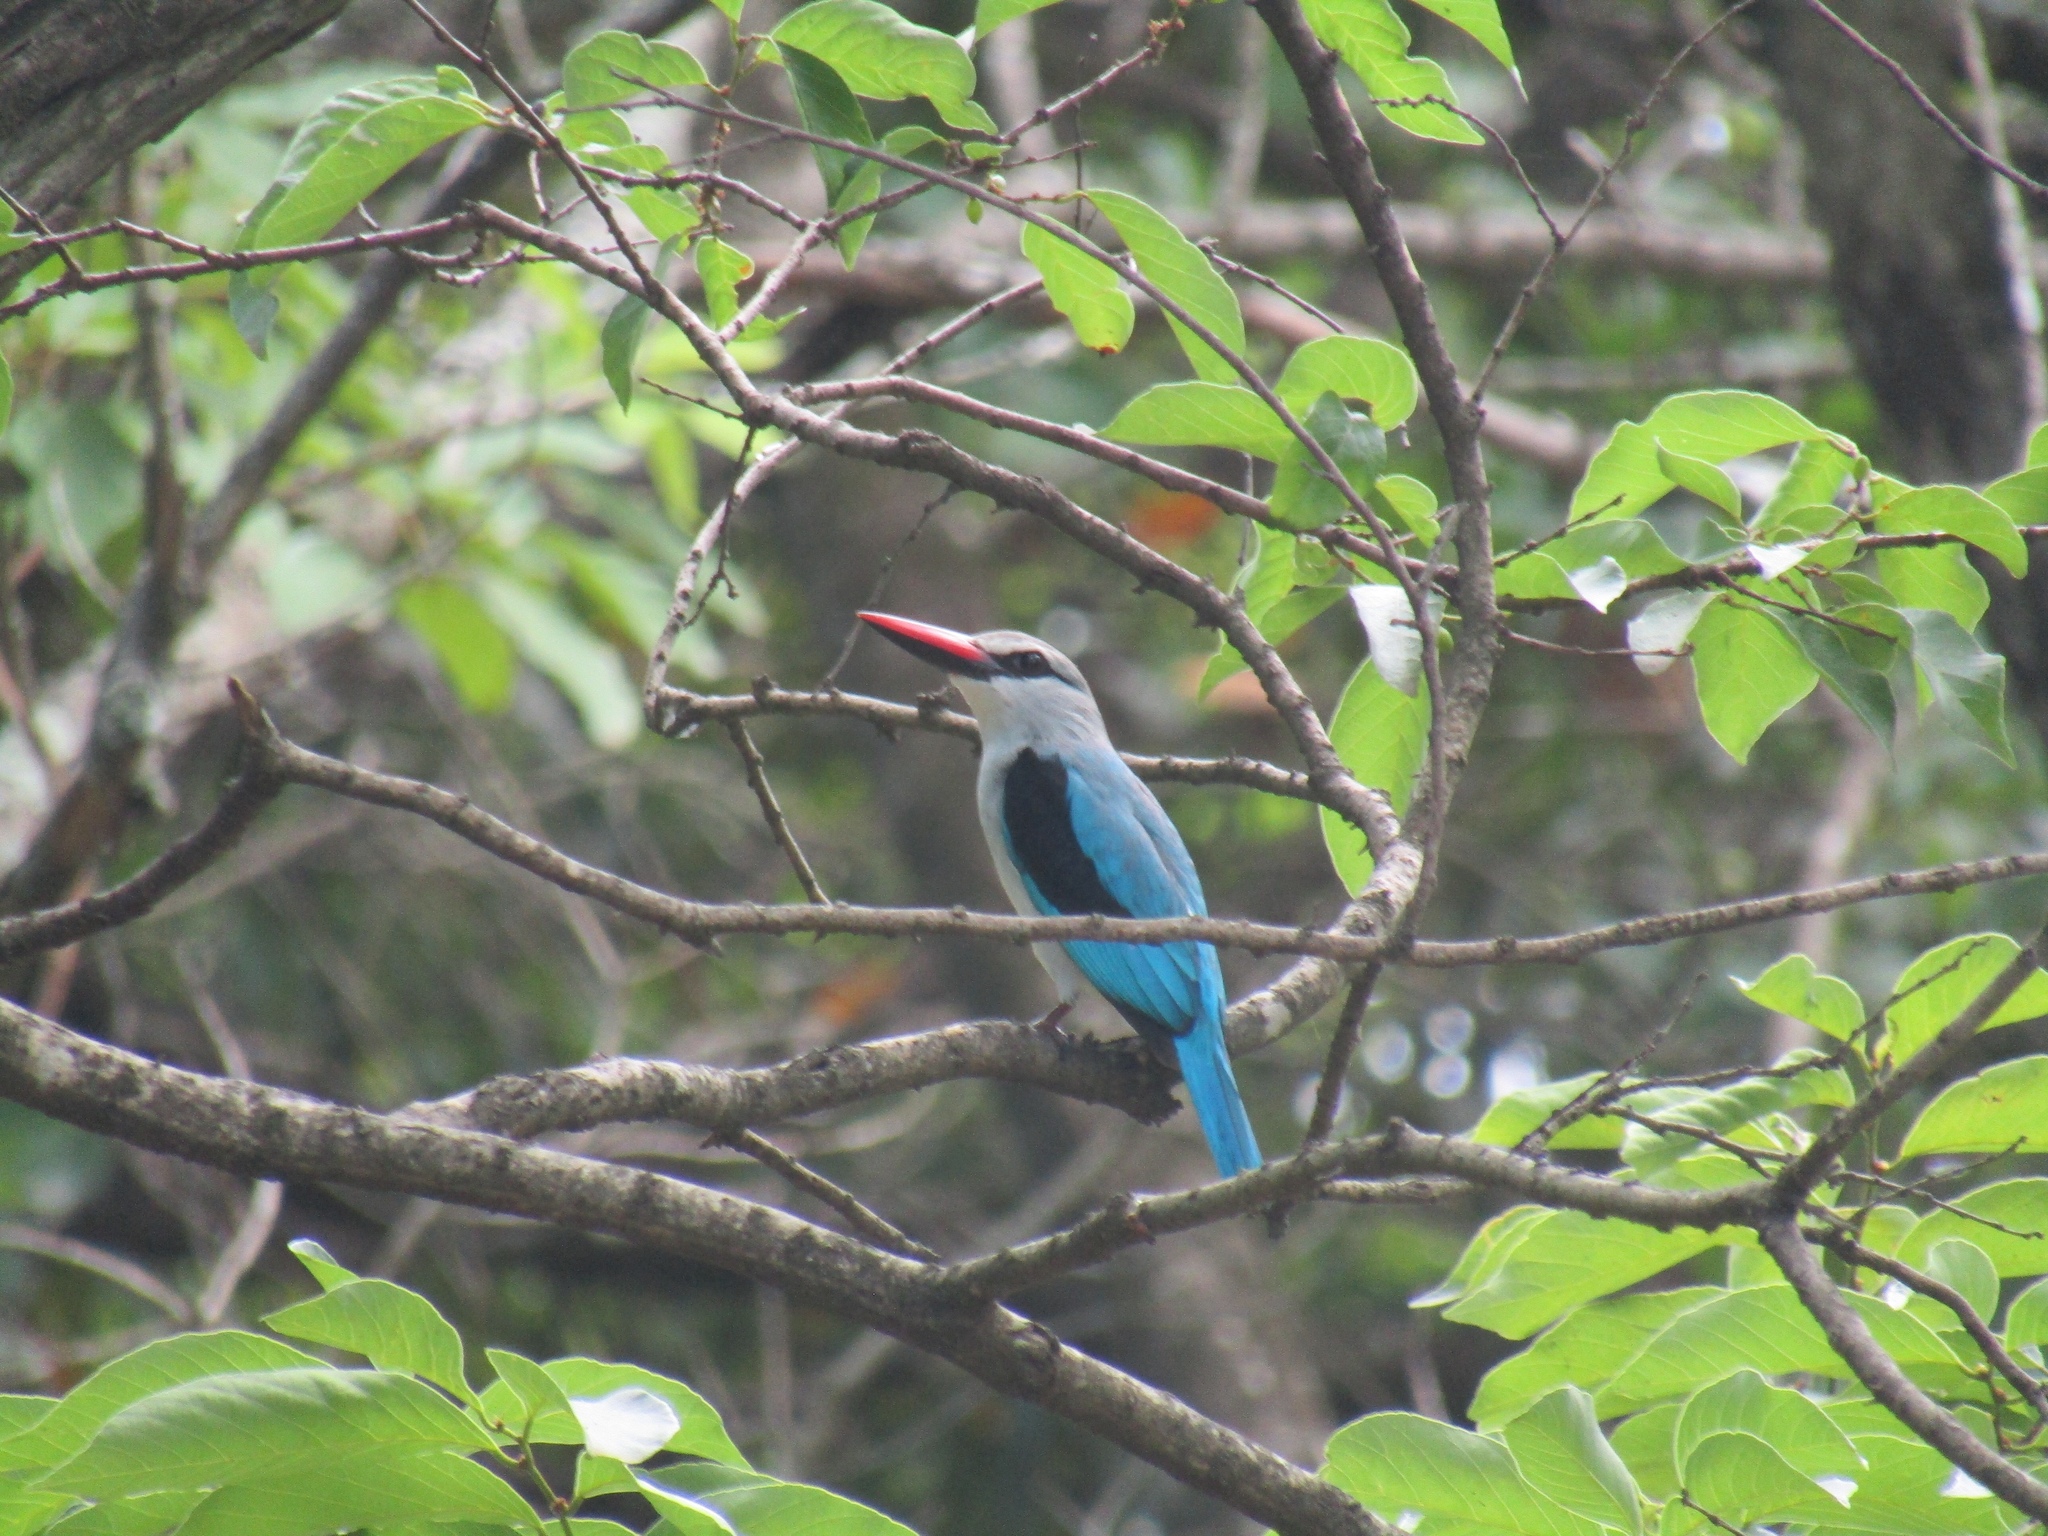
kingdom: Animalia
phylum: Chordata
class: Aves
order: Coraciiformes
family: Alcedinidae
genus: Halcyon
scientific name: Halcyon senegalensis
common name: Woodland kingfisher
